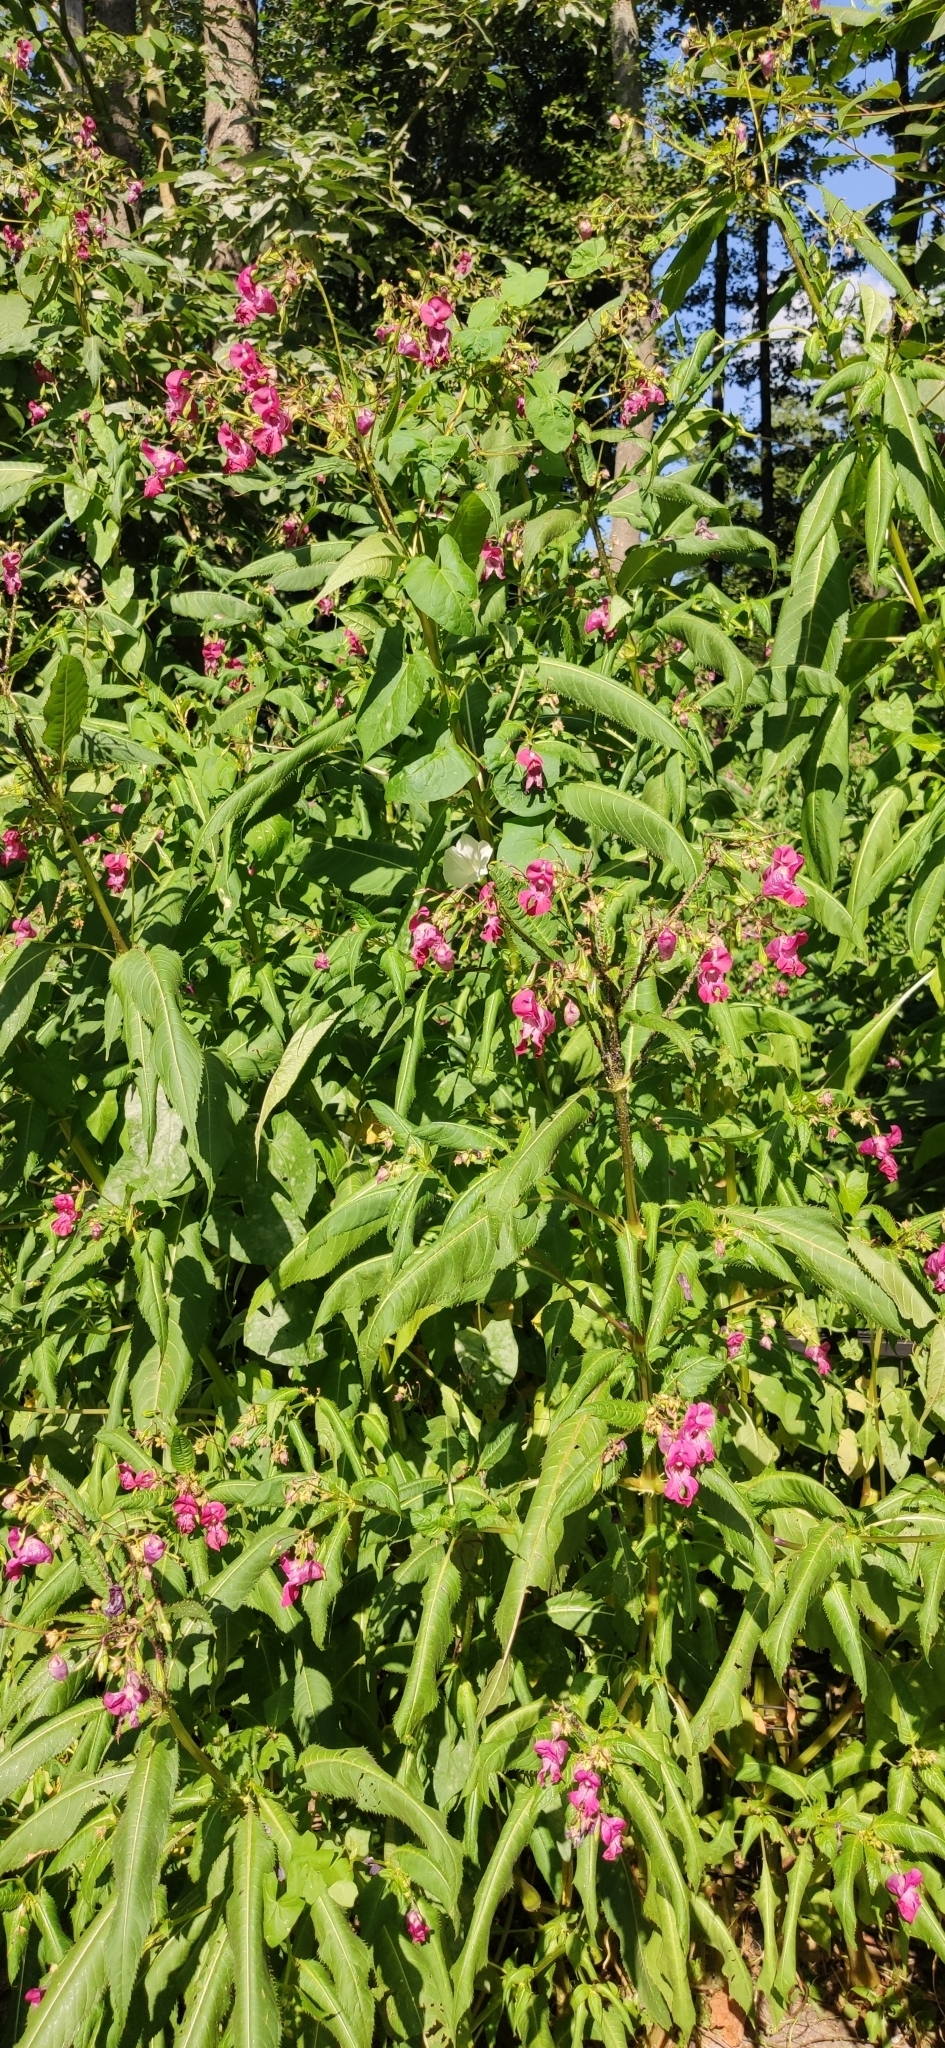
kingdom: Plantae
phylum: Tracheophyta
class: Magnoliopsida
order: Ericales
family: Balsaminaceae
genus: Impatiens
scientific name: Impatiens glandulifera
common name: Himalayan balsam
